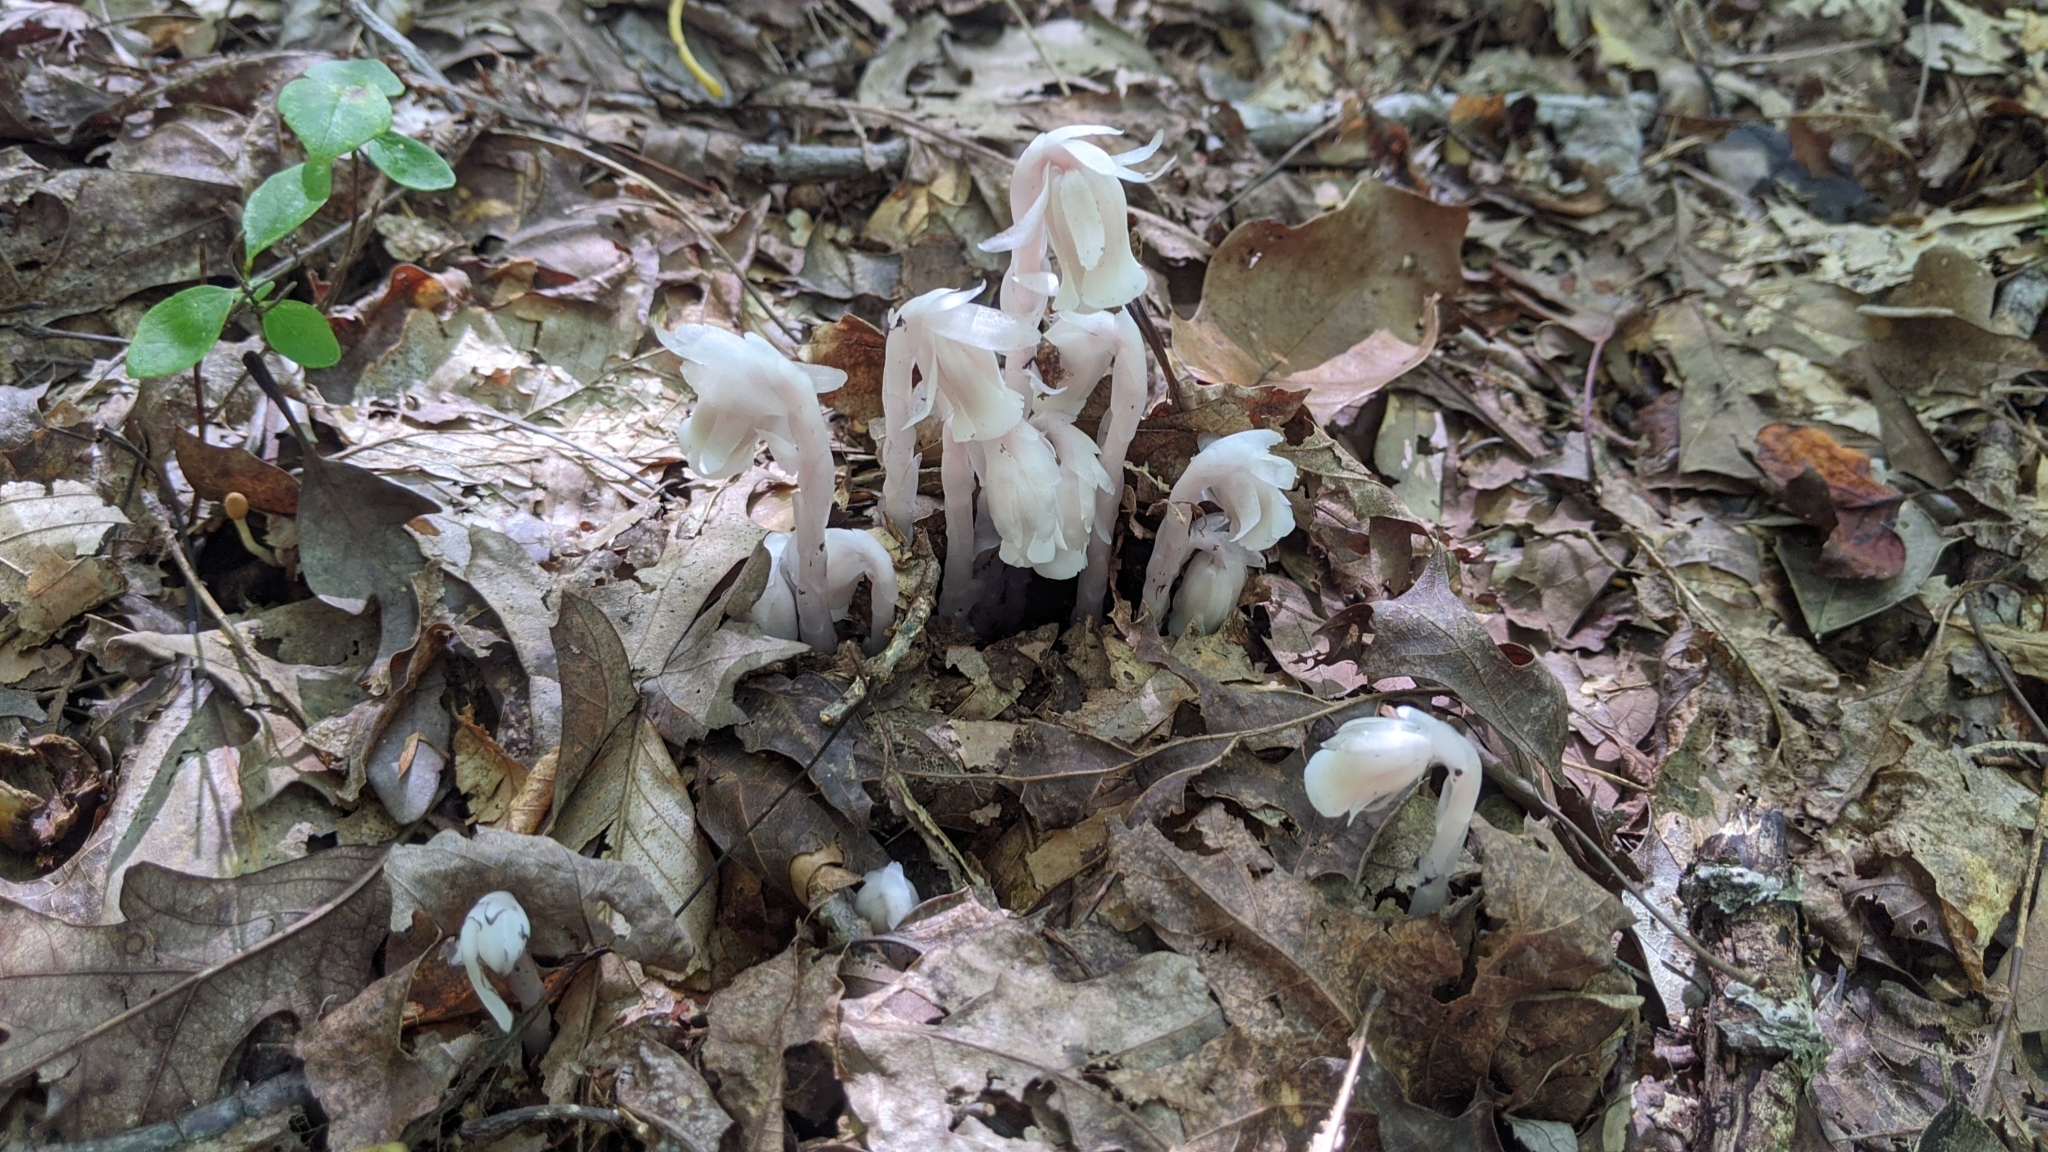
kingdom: Plantae
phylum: Tracheophyta
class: Magnoliopsida
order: Ericales
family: Ericaceae
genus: Monotropa
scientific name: Monotropa uniflora
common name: Convulsion root
